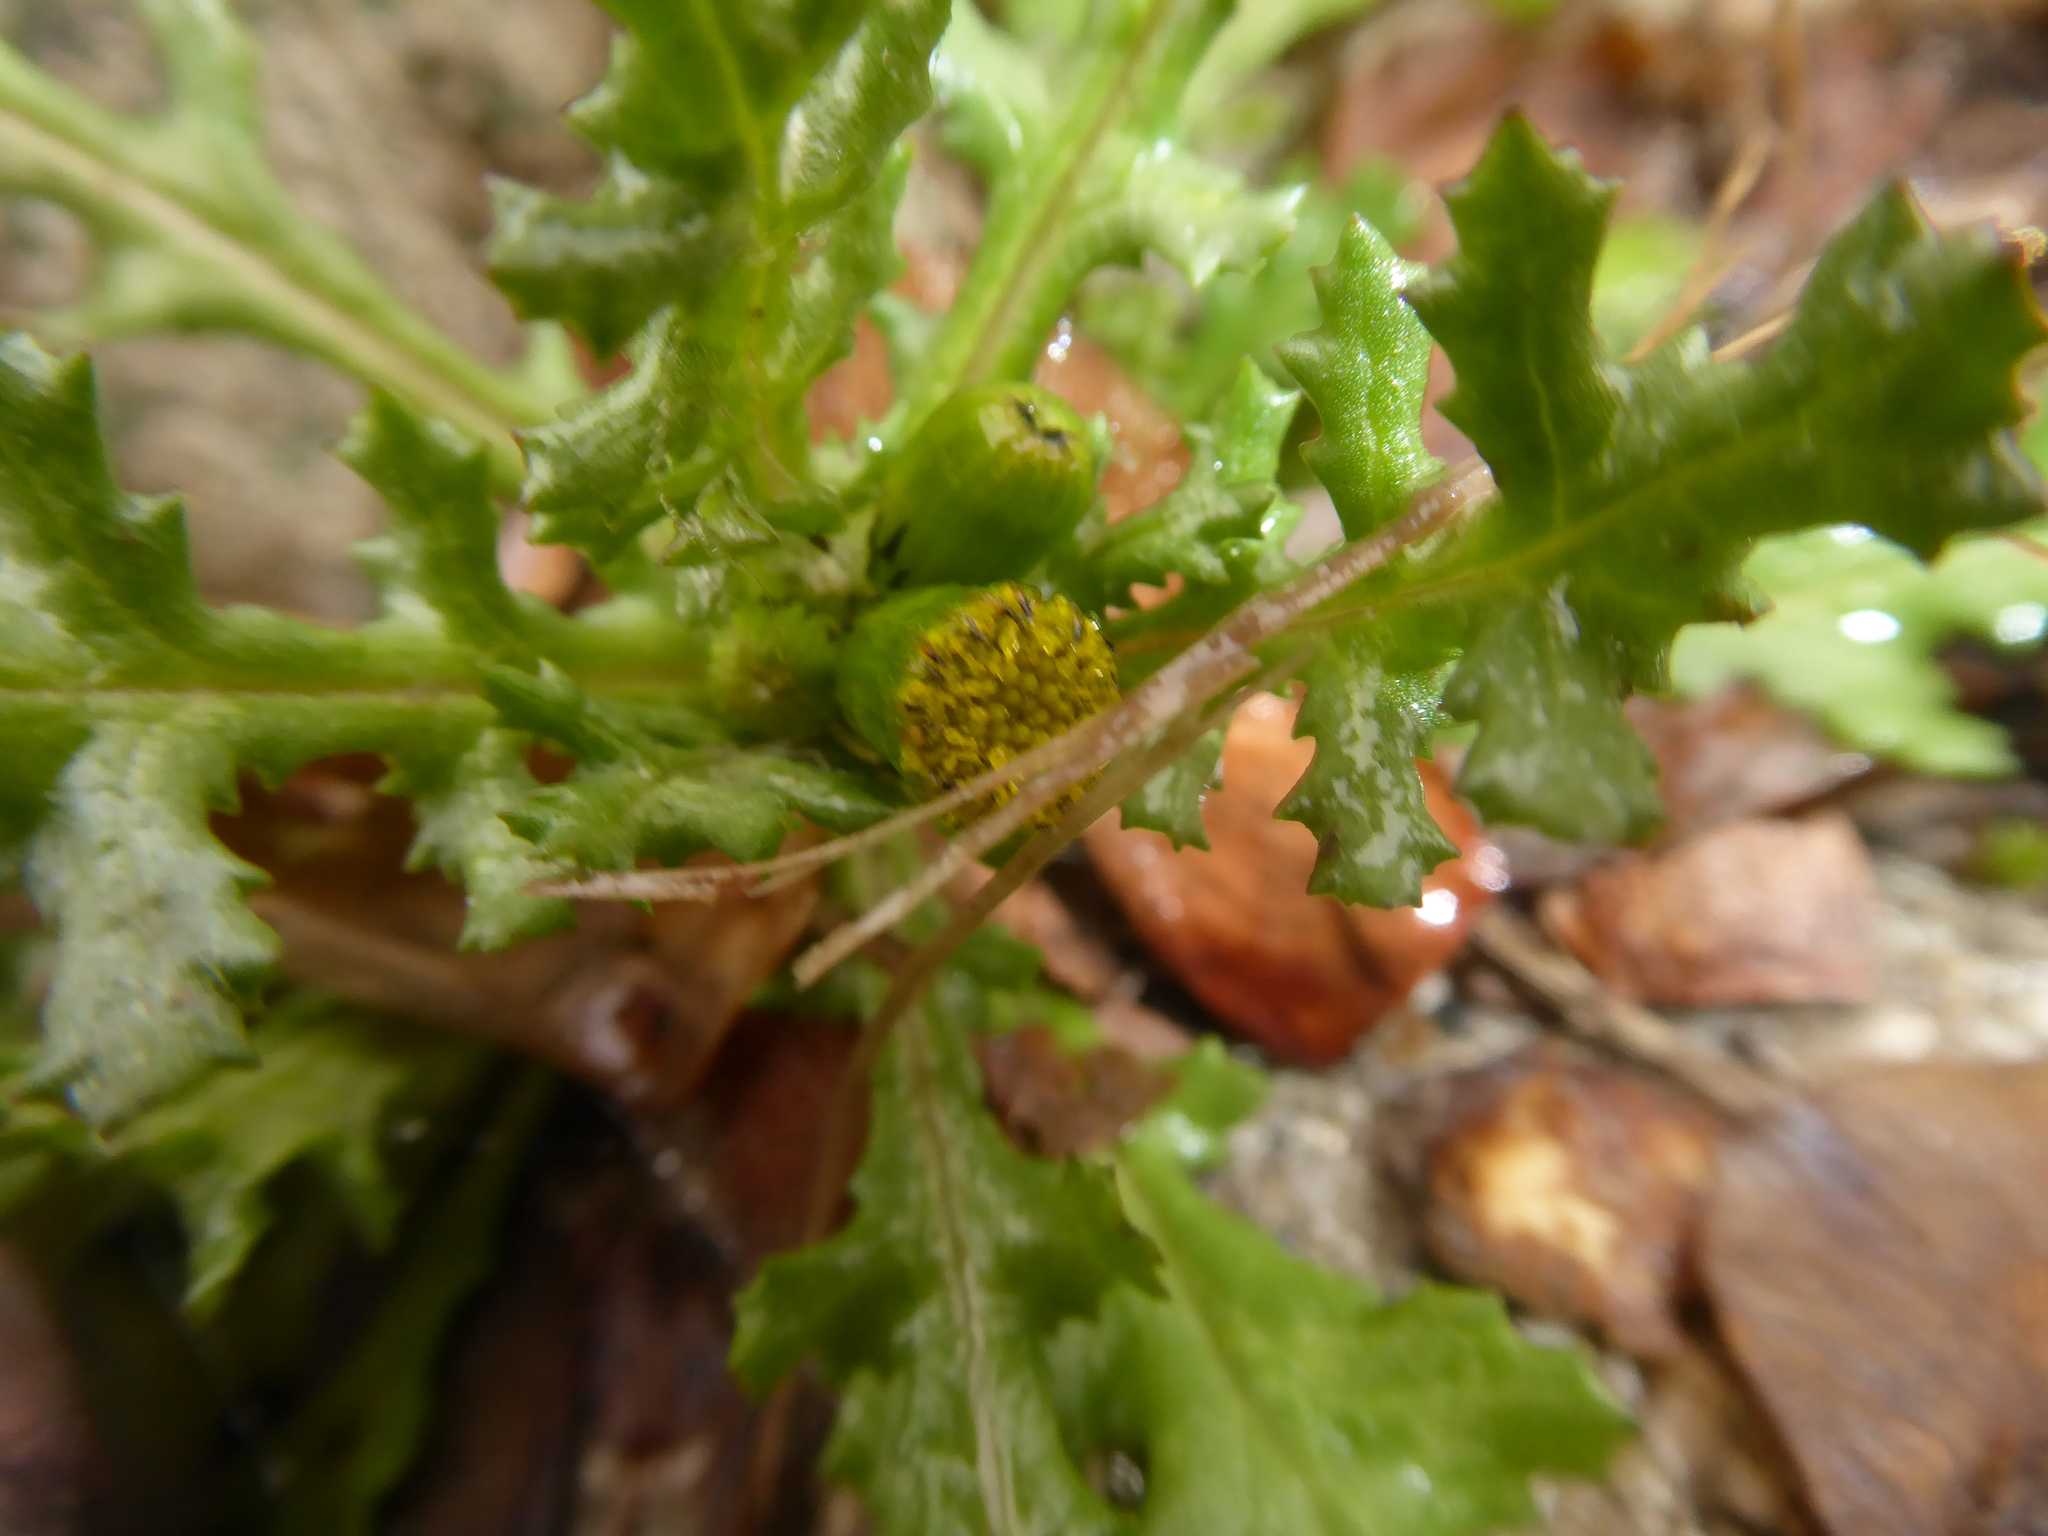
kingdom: Plantae
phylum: Tracheophyta
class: Magnoliopsida
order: Asterales
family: Asteraceae
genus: Senecio
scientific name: Senecio vulgaris
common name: Old-man-in-the-spring
